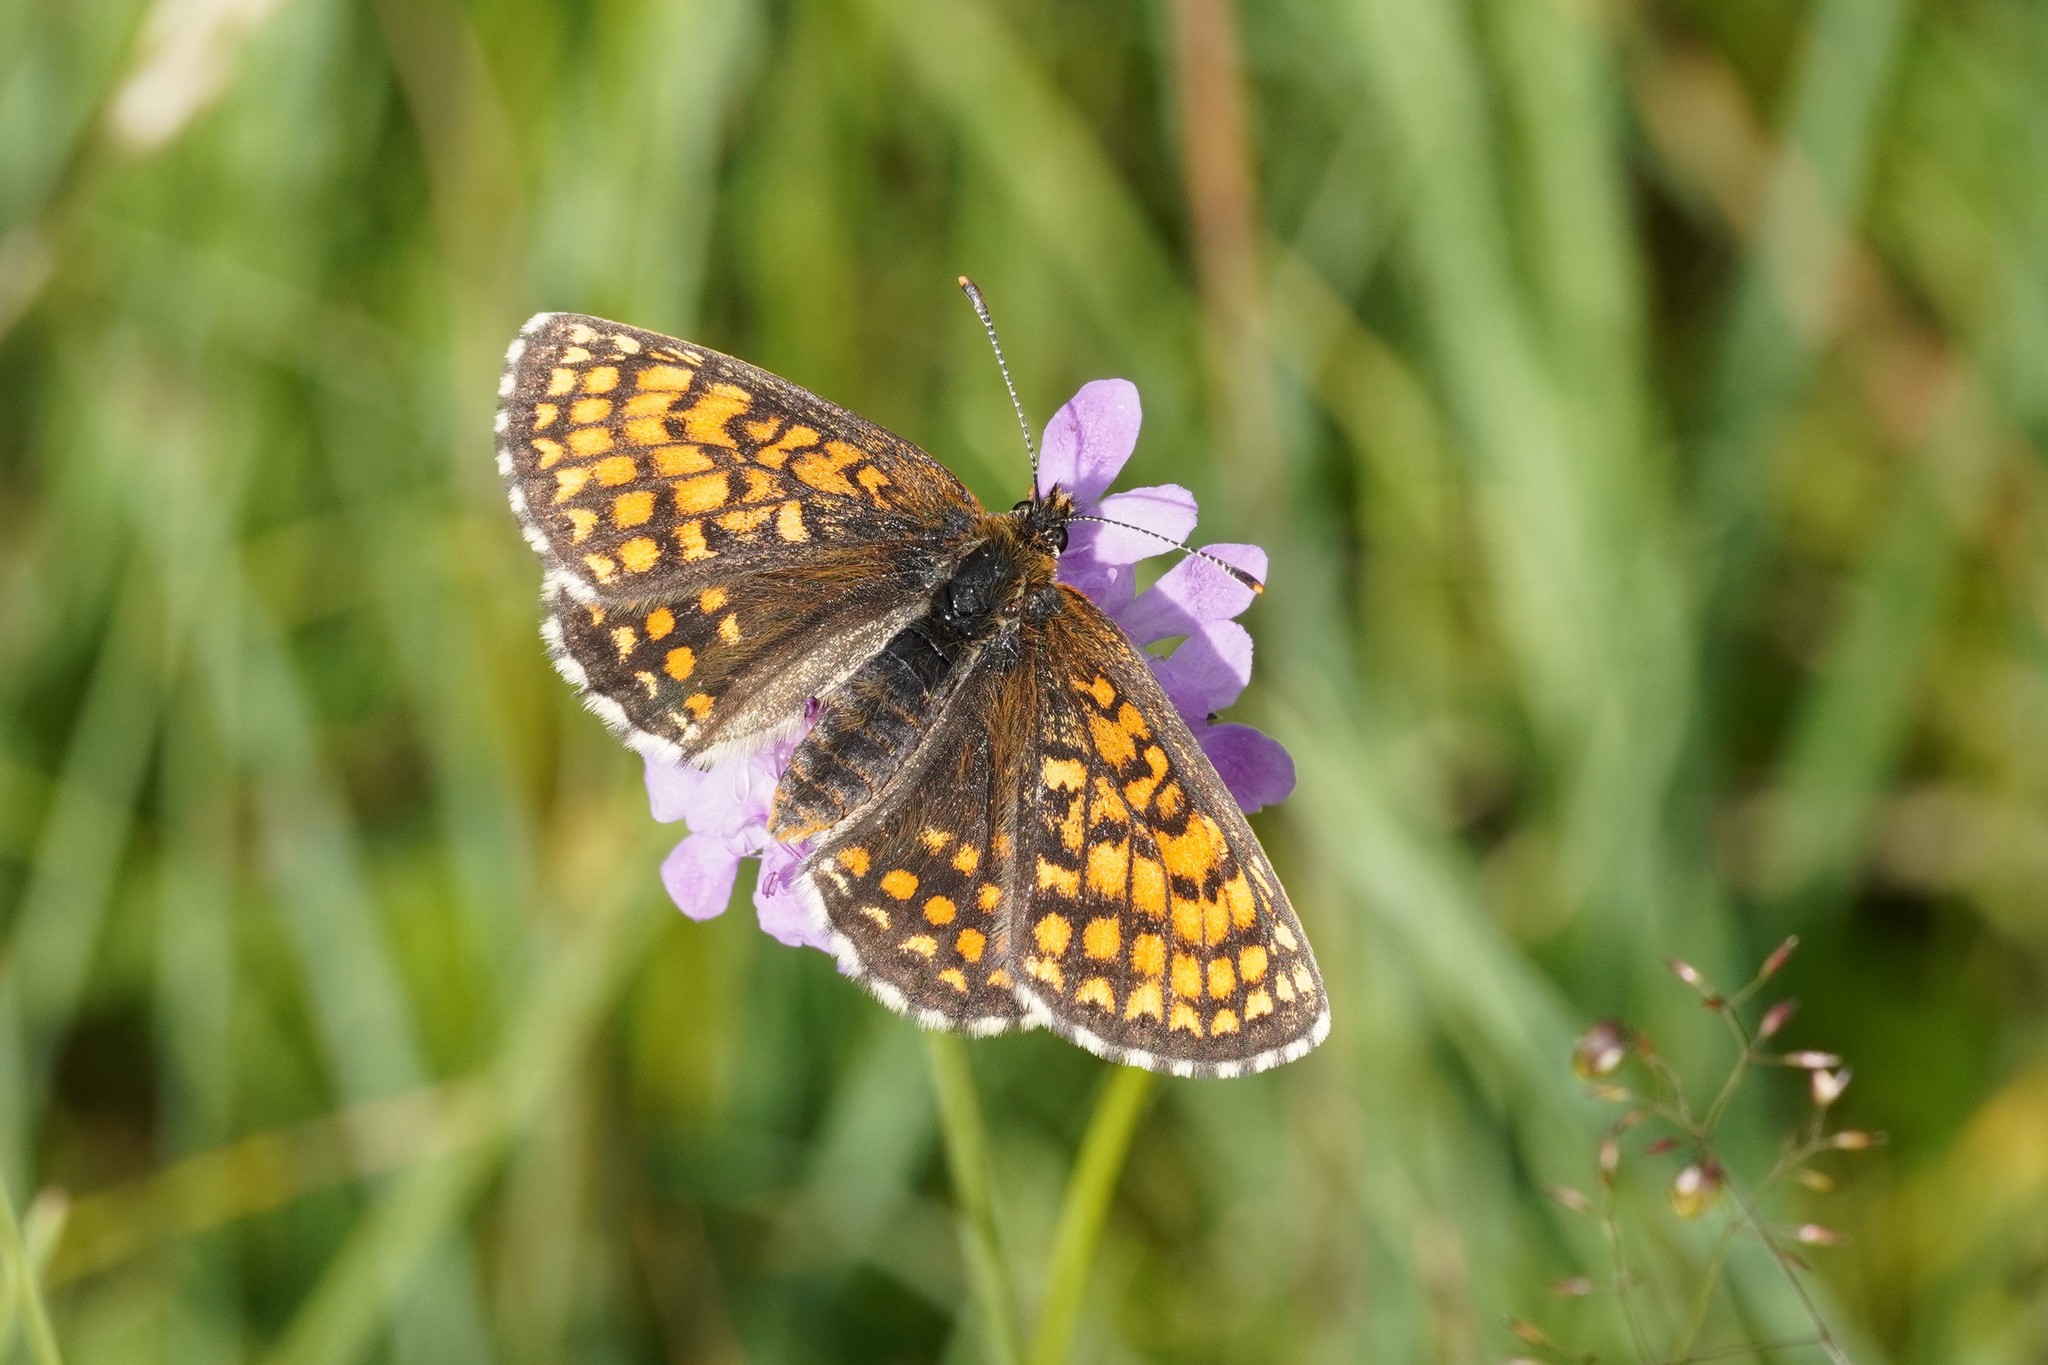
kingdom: Animalia
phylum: Arthropoda
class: Insecta
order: Lepidoptera
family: Nymphalidae
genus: Melitaea
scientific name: Melitaea athalia
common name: Heath fritillary
